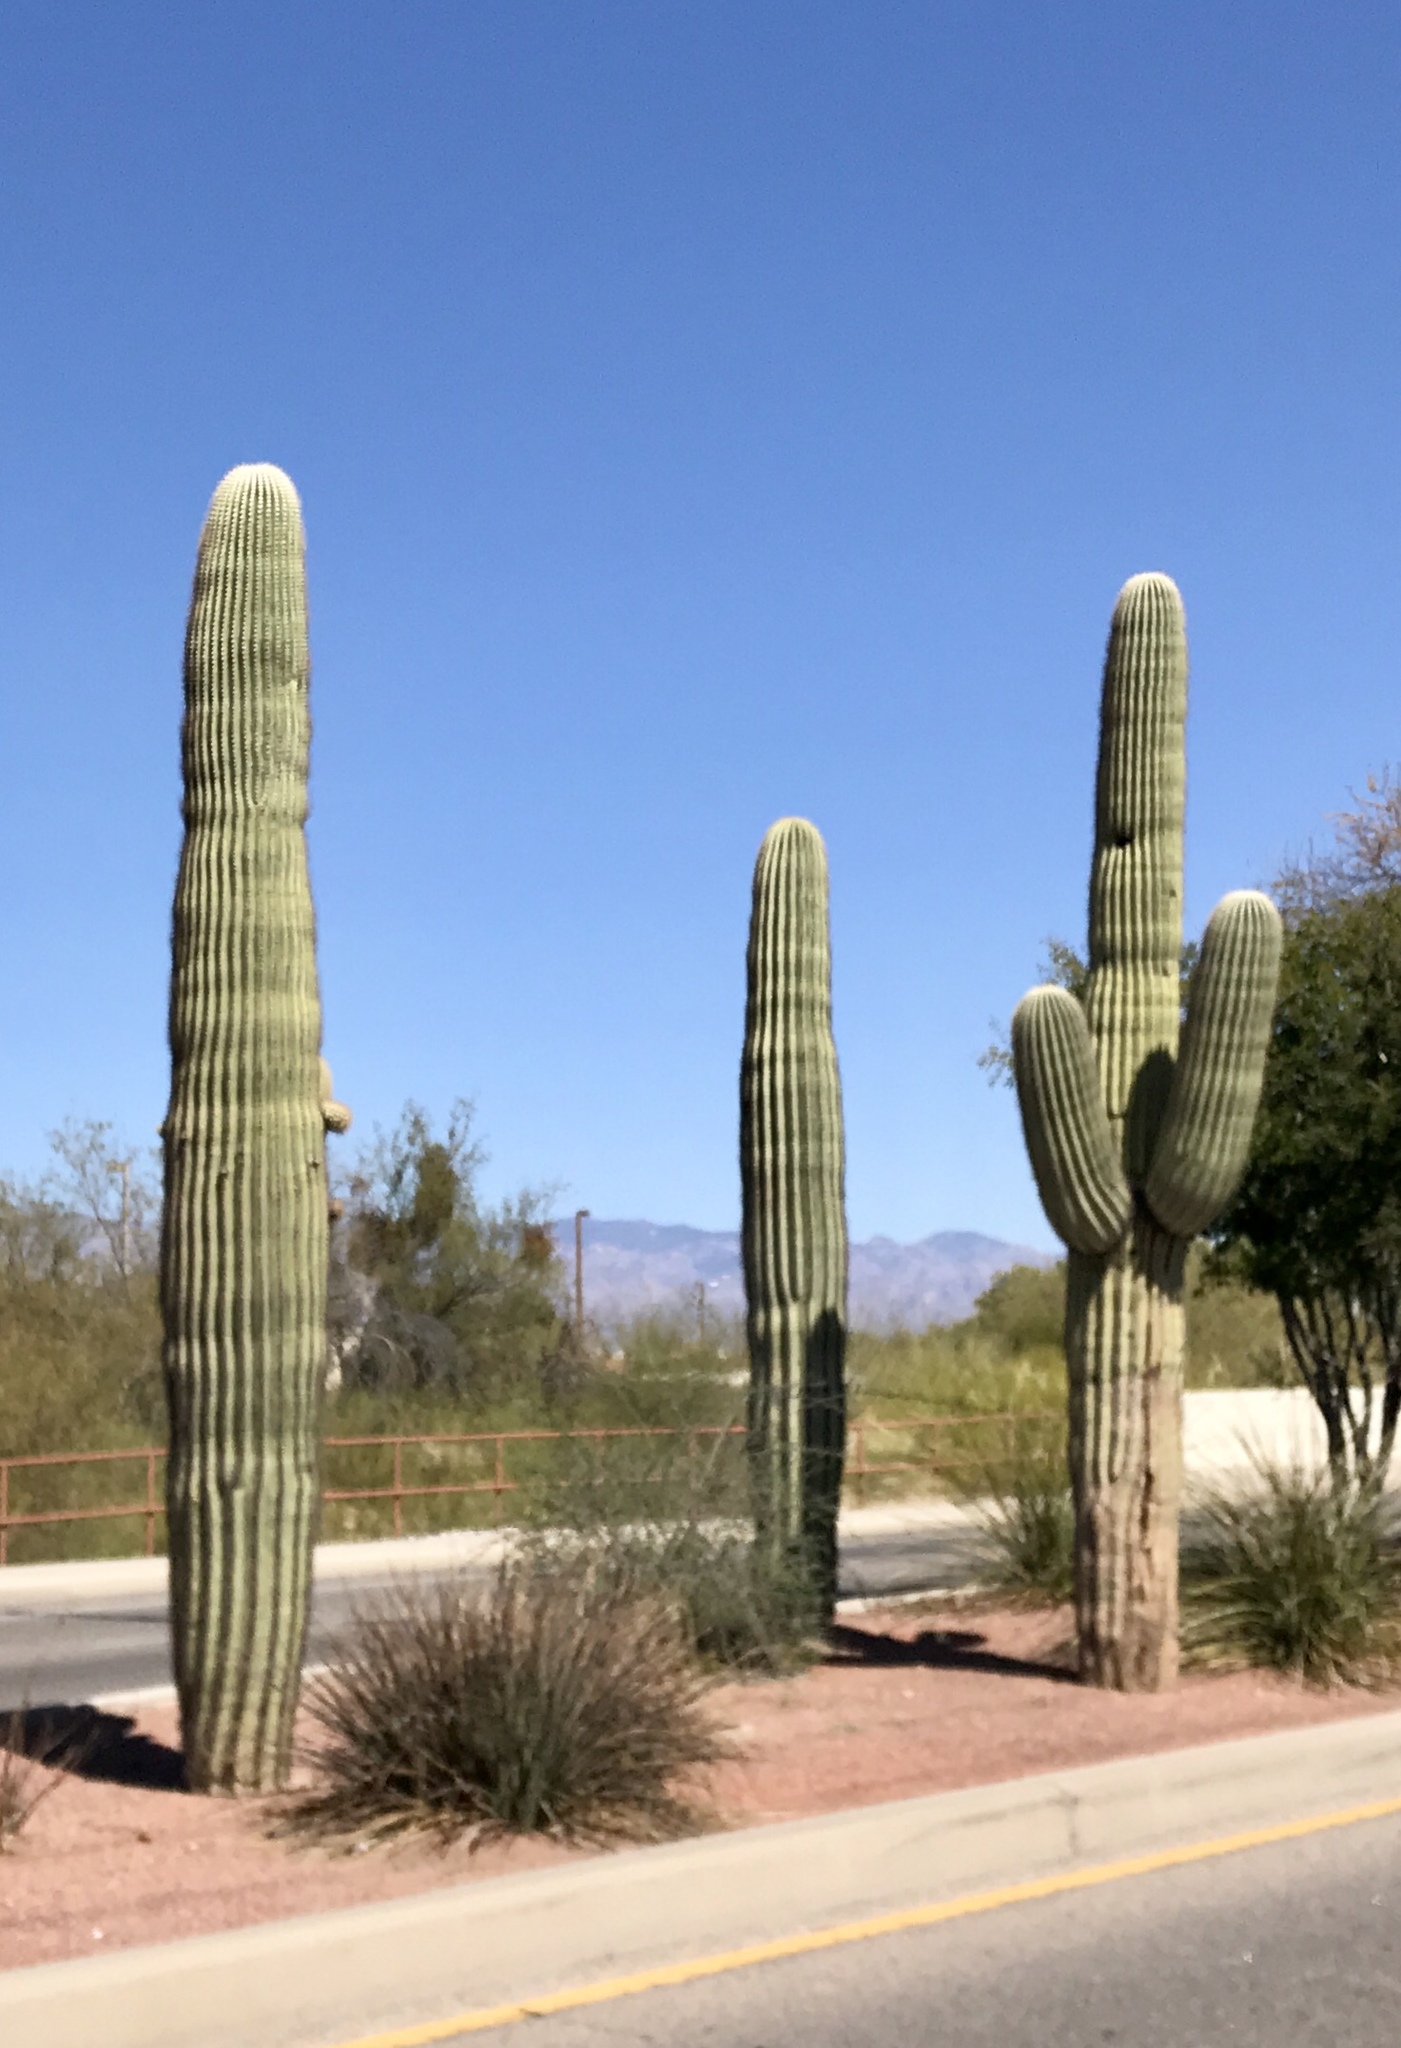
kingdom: Plantae
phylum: Tracheophyta
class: Magnoliopsida
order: Caryophyllales
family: Cactaceae
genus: Carnegiea
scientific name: Carnegiea gigantea
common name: Saguaro
